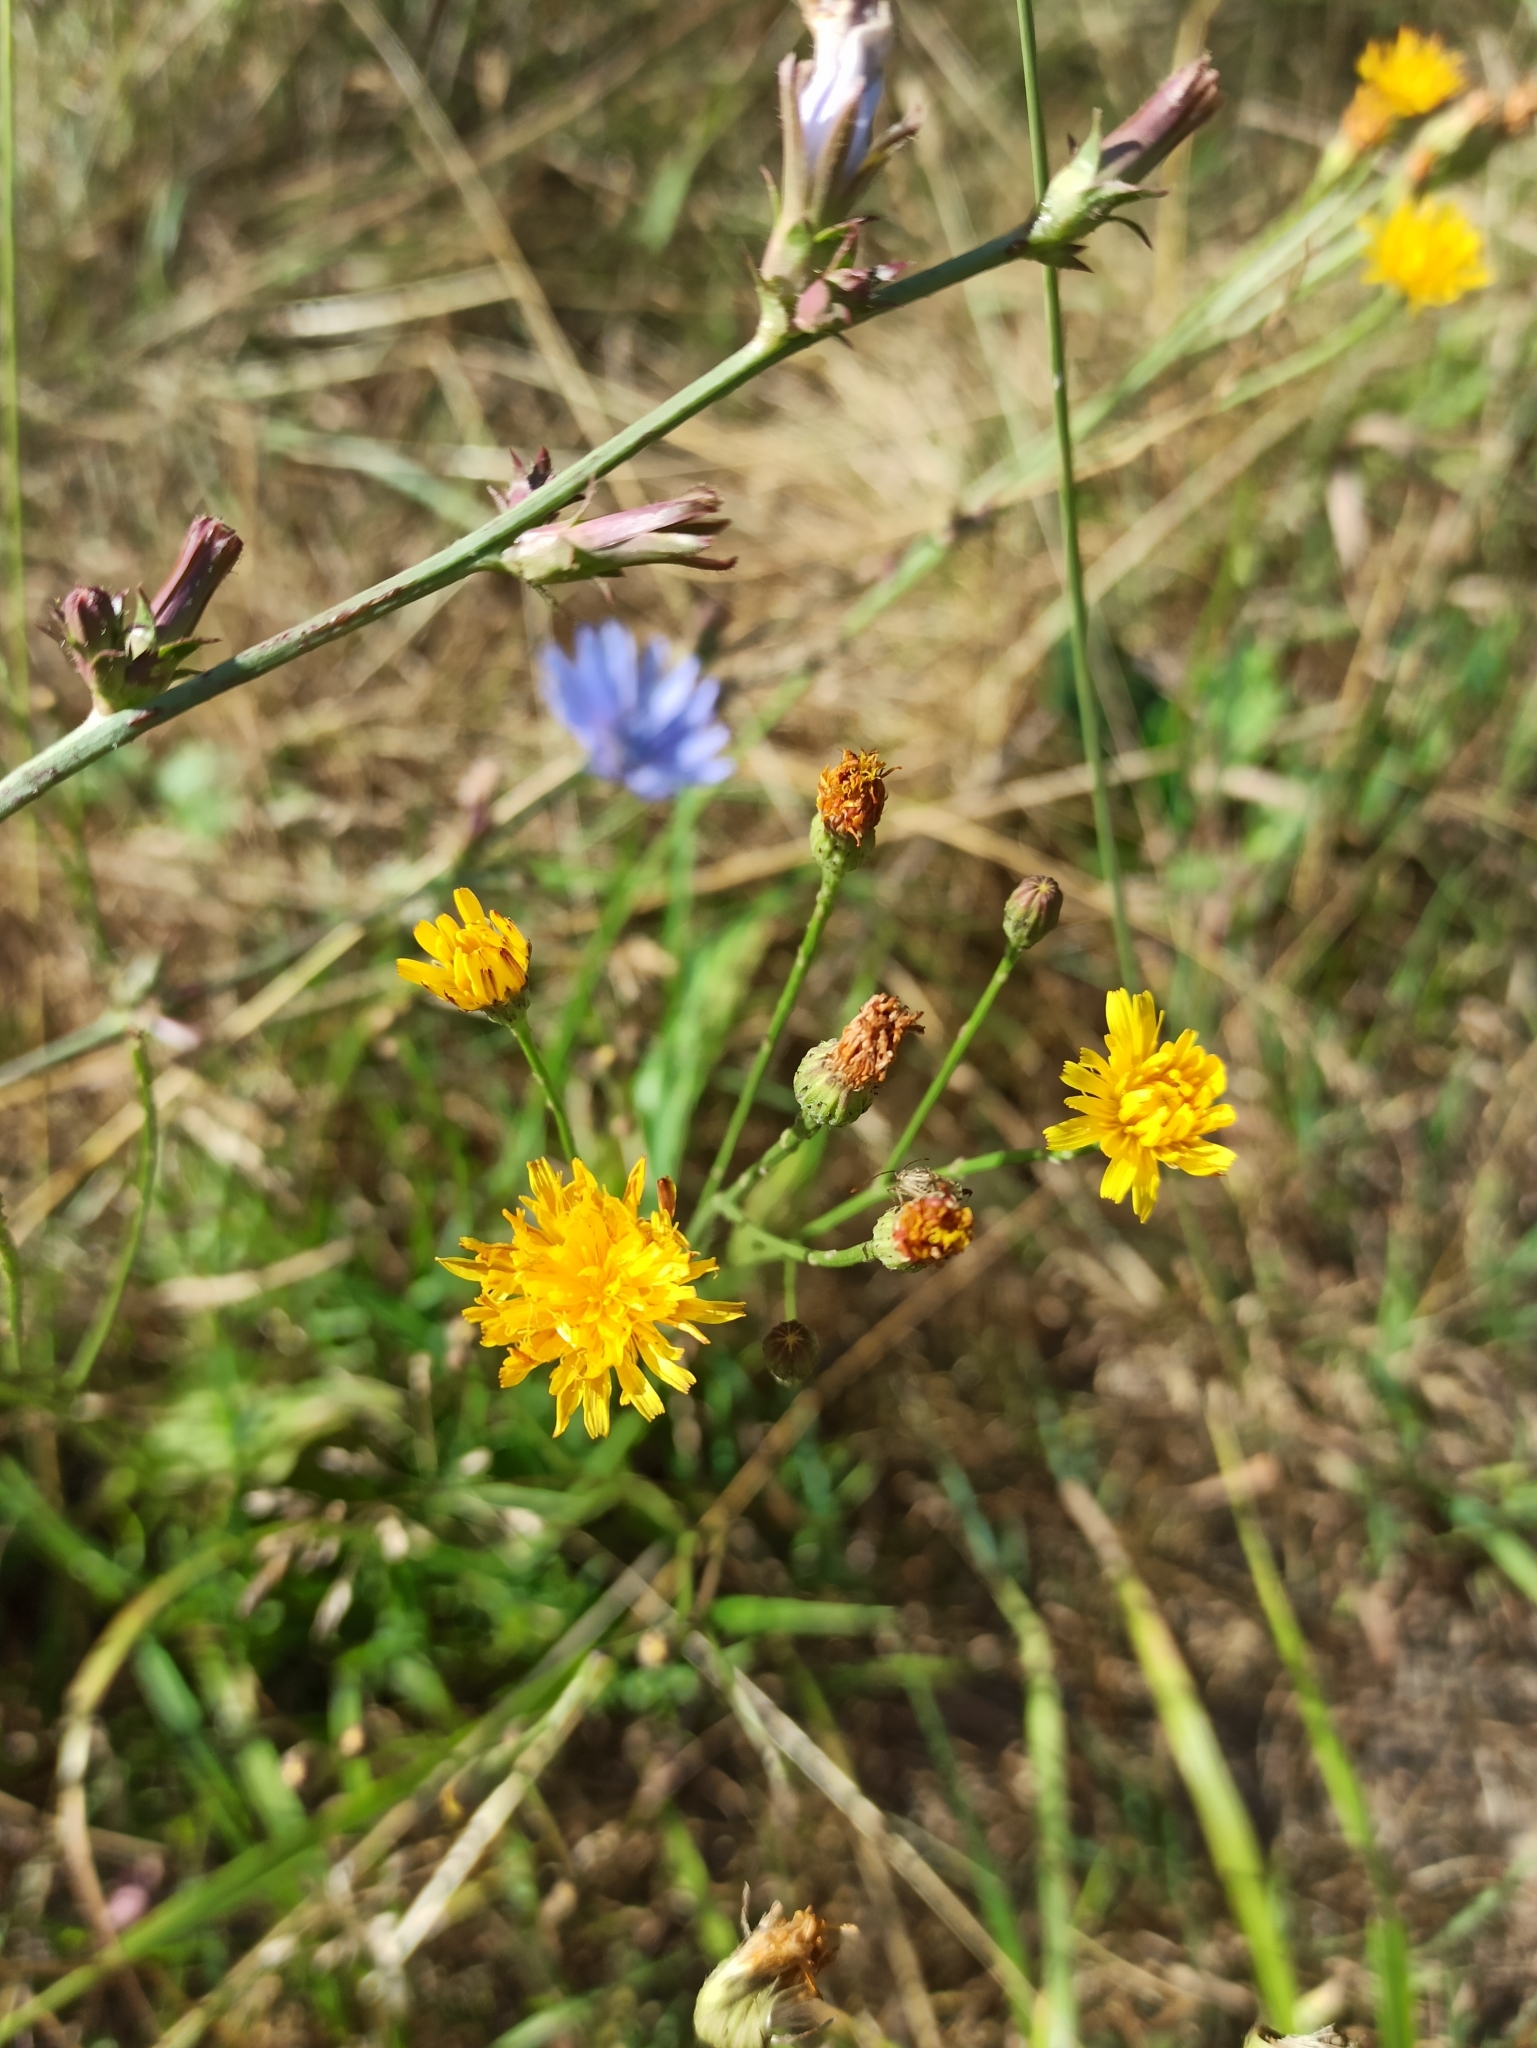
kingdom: Plantae
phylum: Tracheophyta
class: Magnoliopsida
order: Asterales
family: Asteraceae
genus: Scorzoneroides
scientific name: Scorzoneroides autumnalis
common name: Autumn hawkbit
